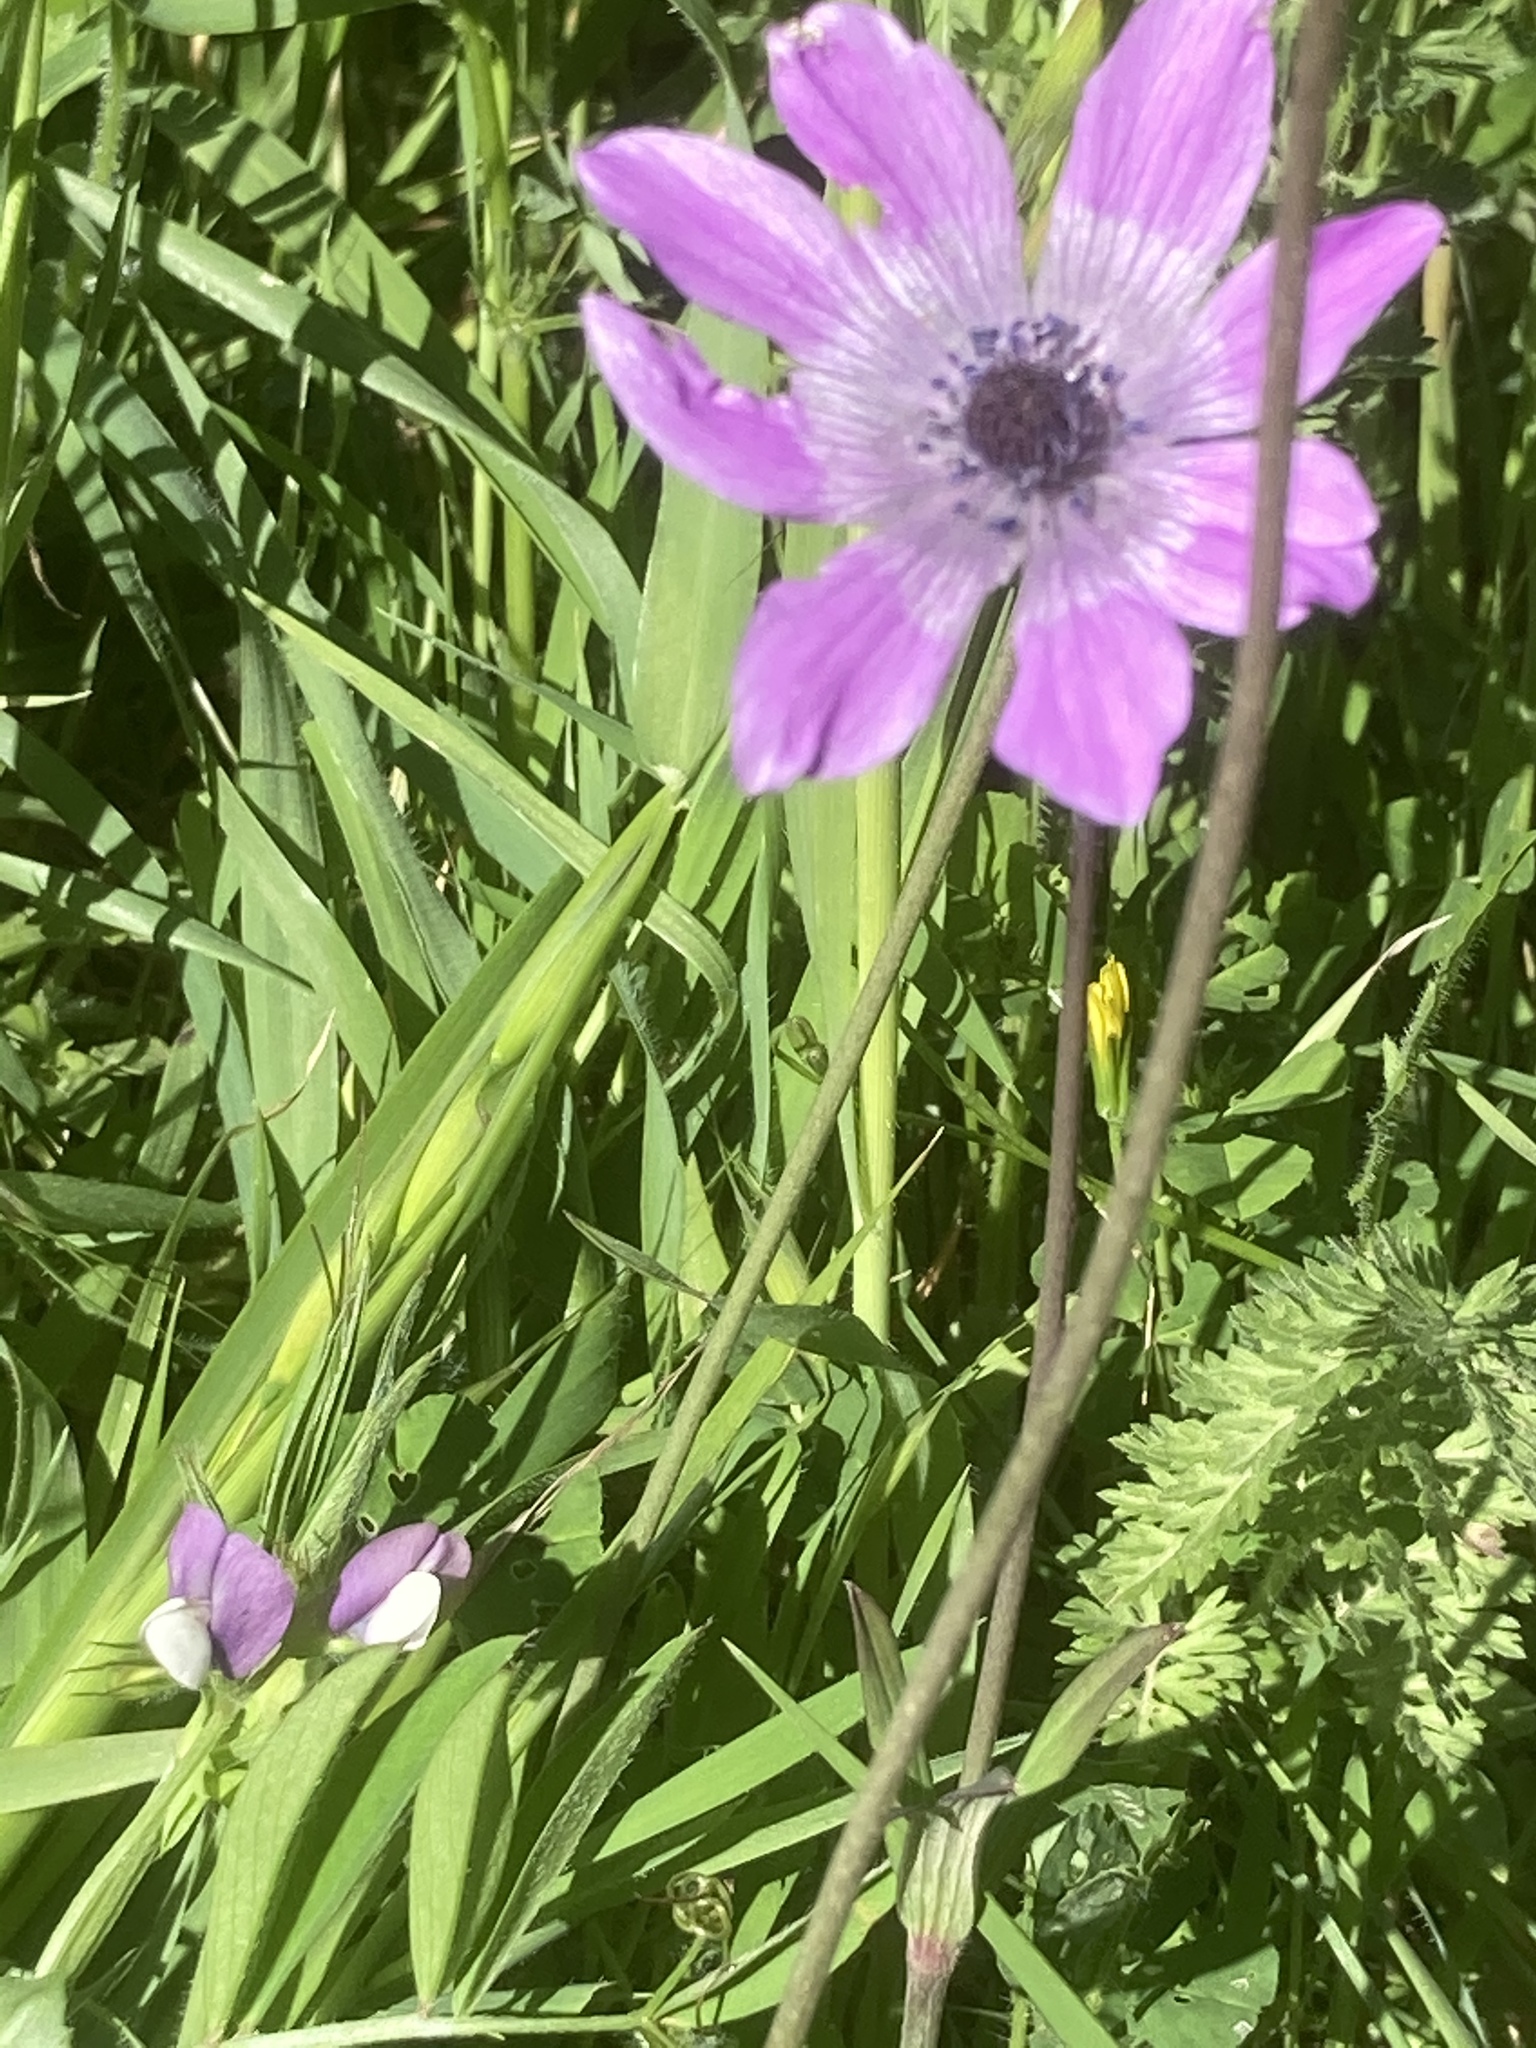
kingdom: Plantae
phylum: Tracheophyta
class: Magnoliopsida
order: Ranunculales
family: Ranunculaceae
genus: Anemone
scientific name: Anemone pavonina
